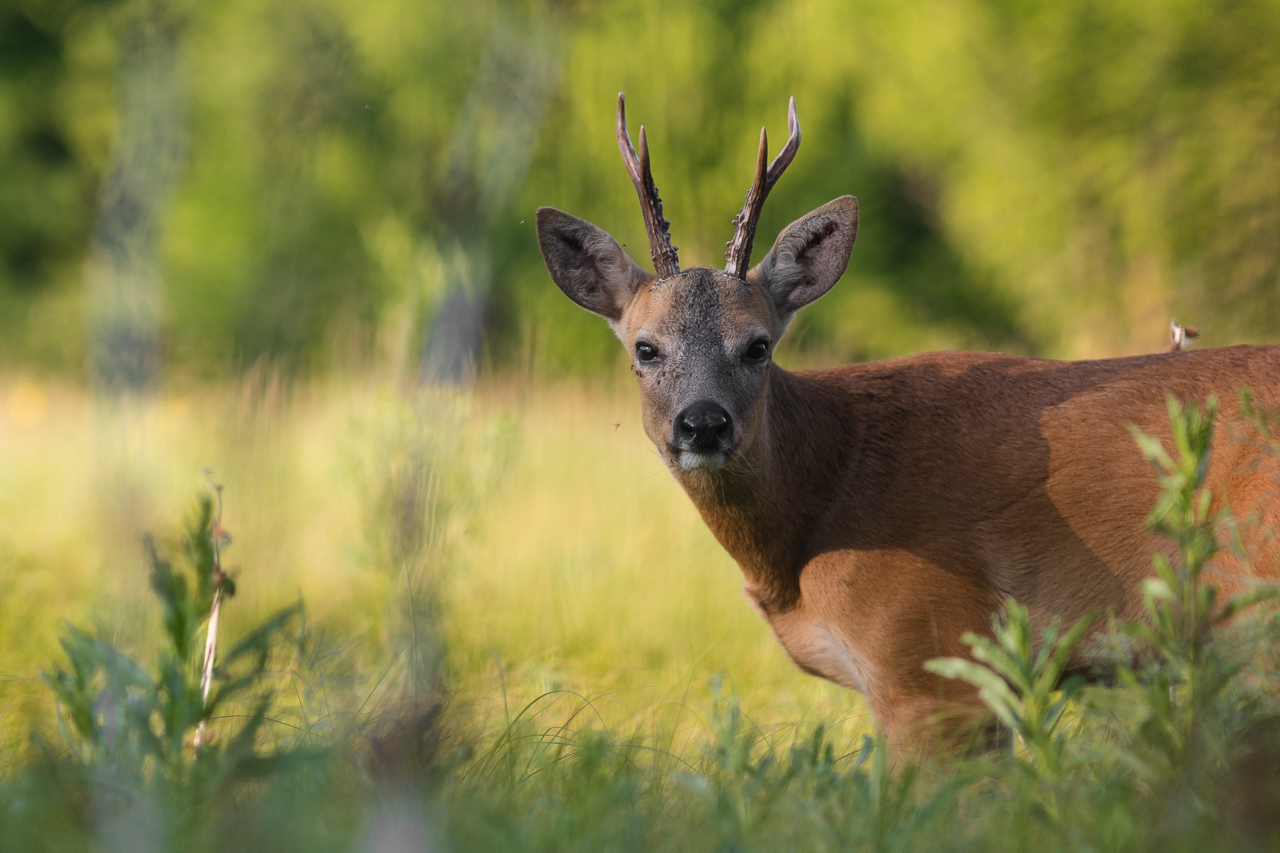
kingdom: Animalia
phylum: Chordata
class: Mammalia
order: Artiodactyla
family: Cervidae
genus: Capreolus
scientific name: Capreolus pygargus
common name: Siberian roe
